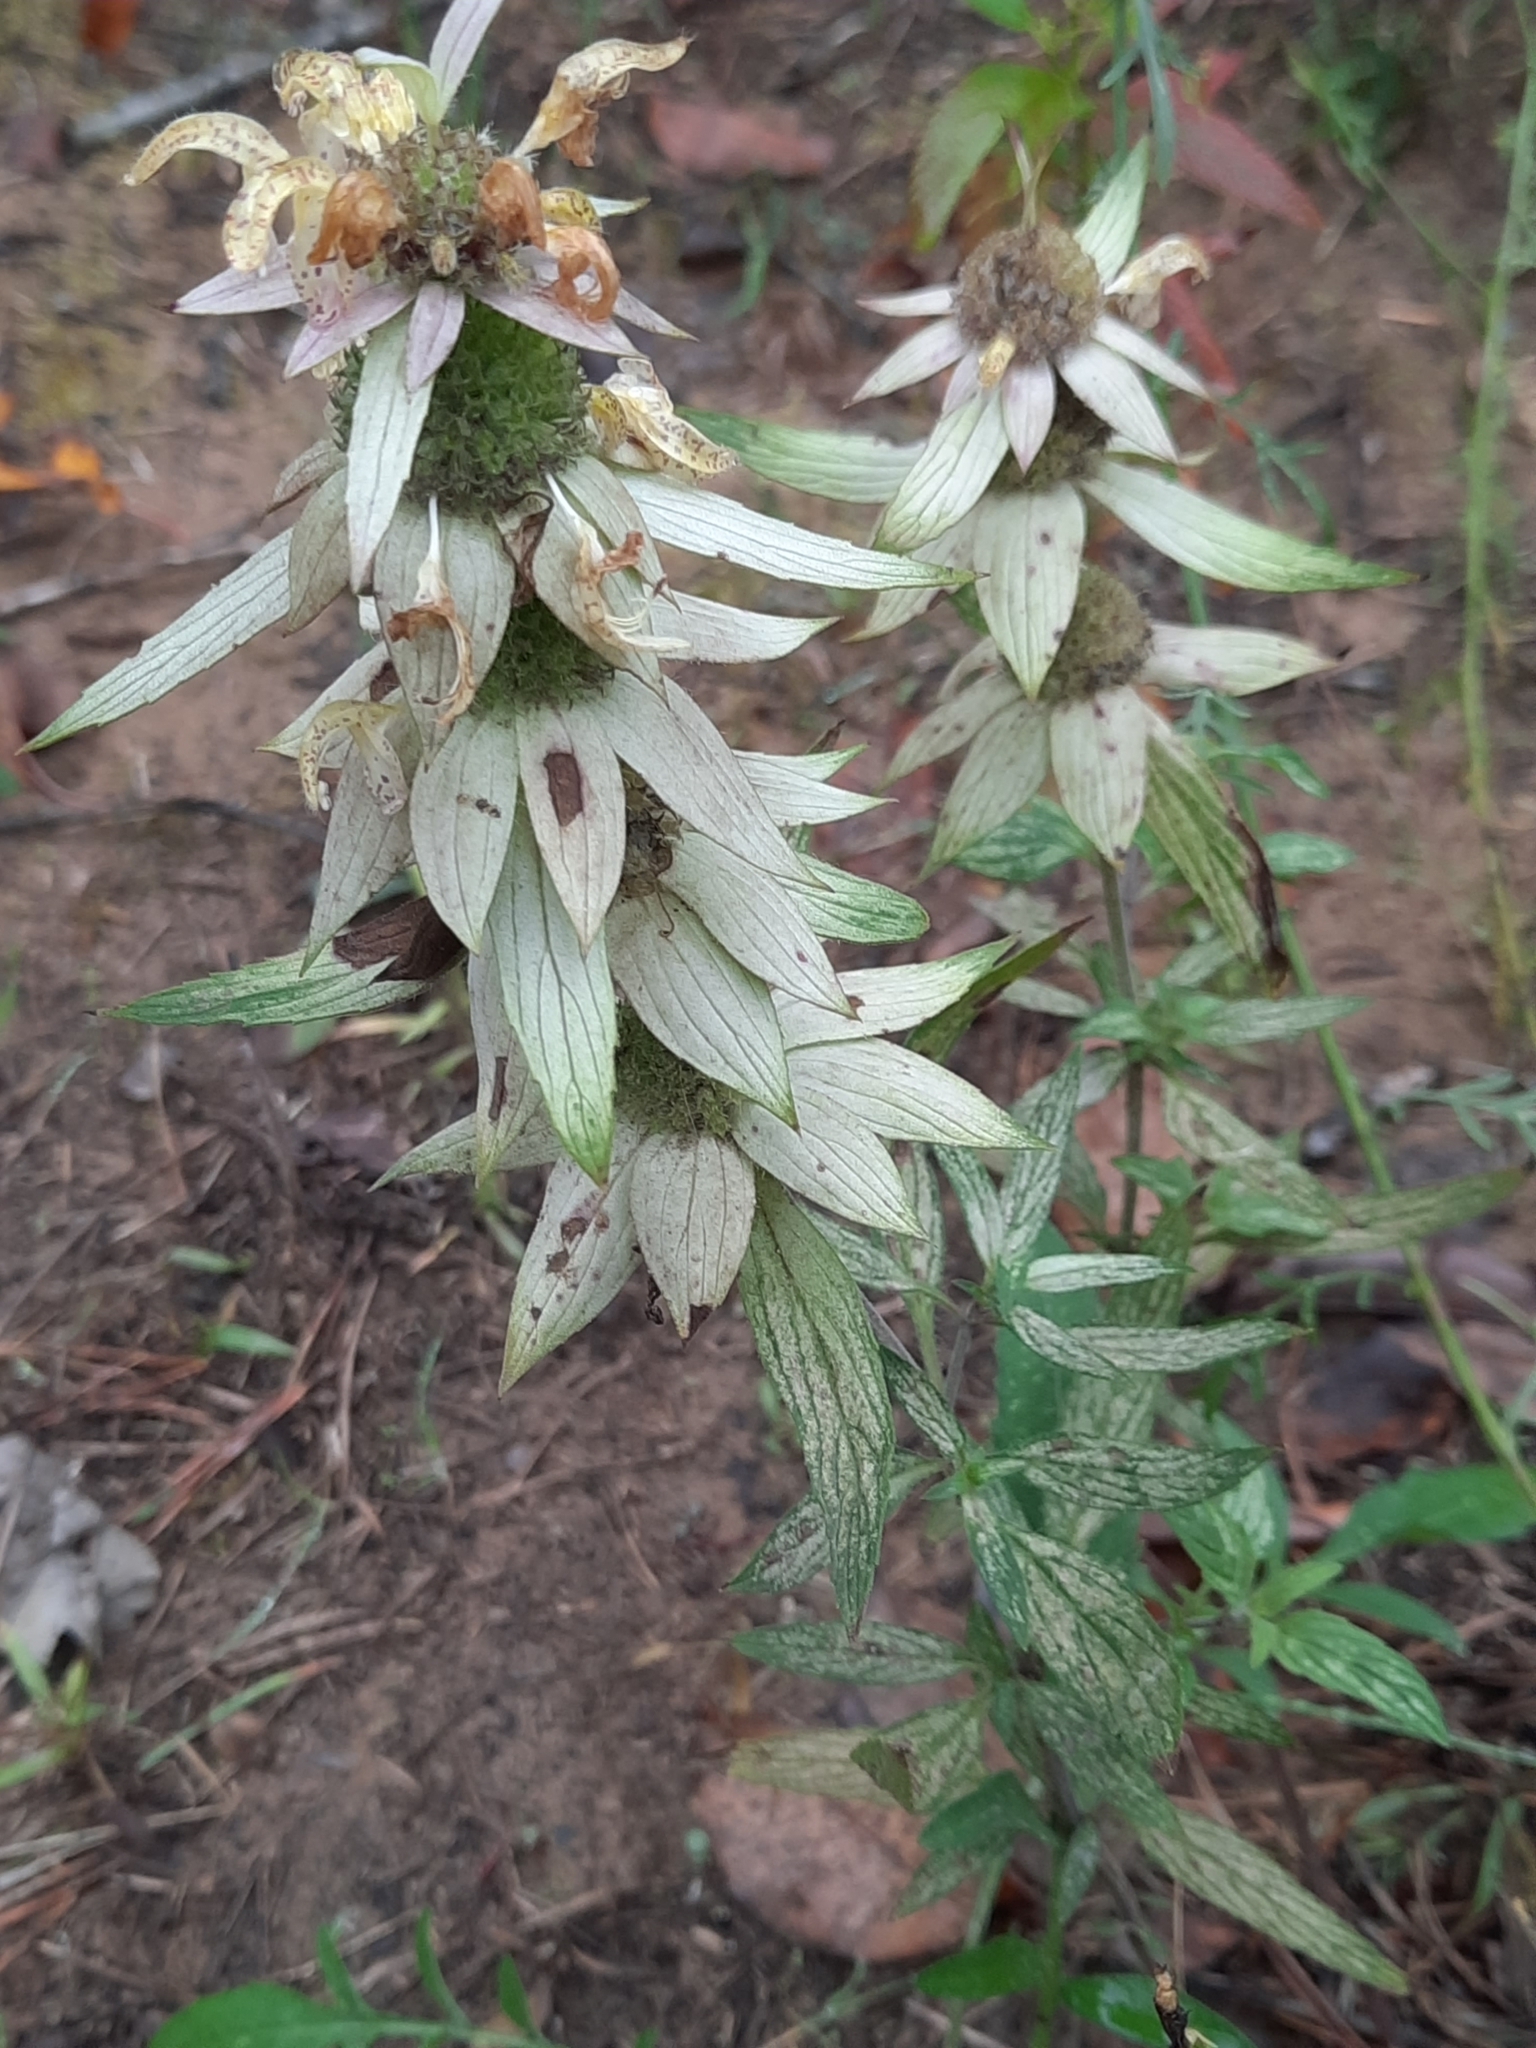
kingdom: Plantae
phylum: Tracheophyta
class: Magnoliopsida
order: Lamiales
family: Lamiaceae
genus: Monarda
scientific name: Monarda punctata
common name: Dotted monarda
